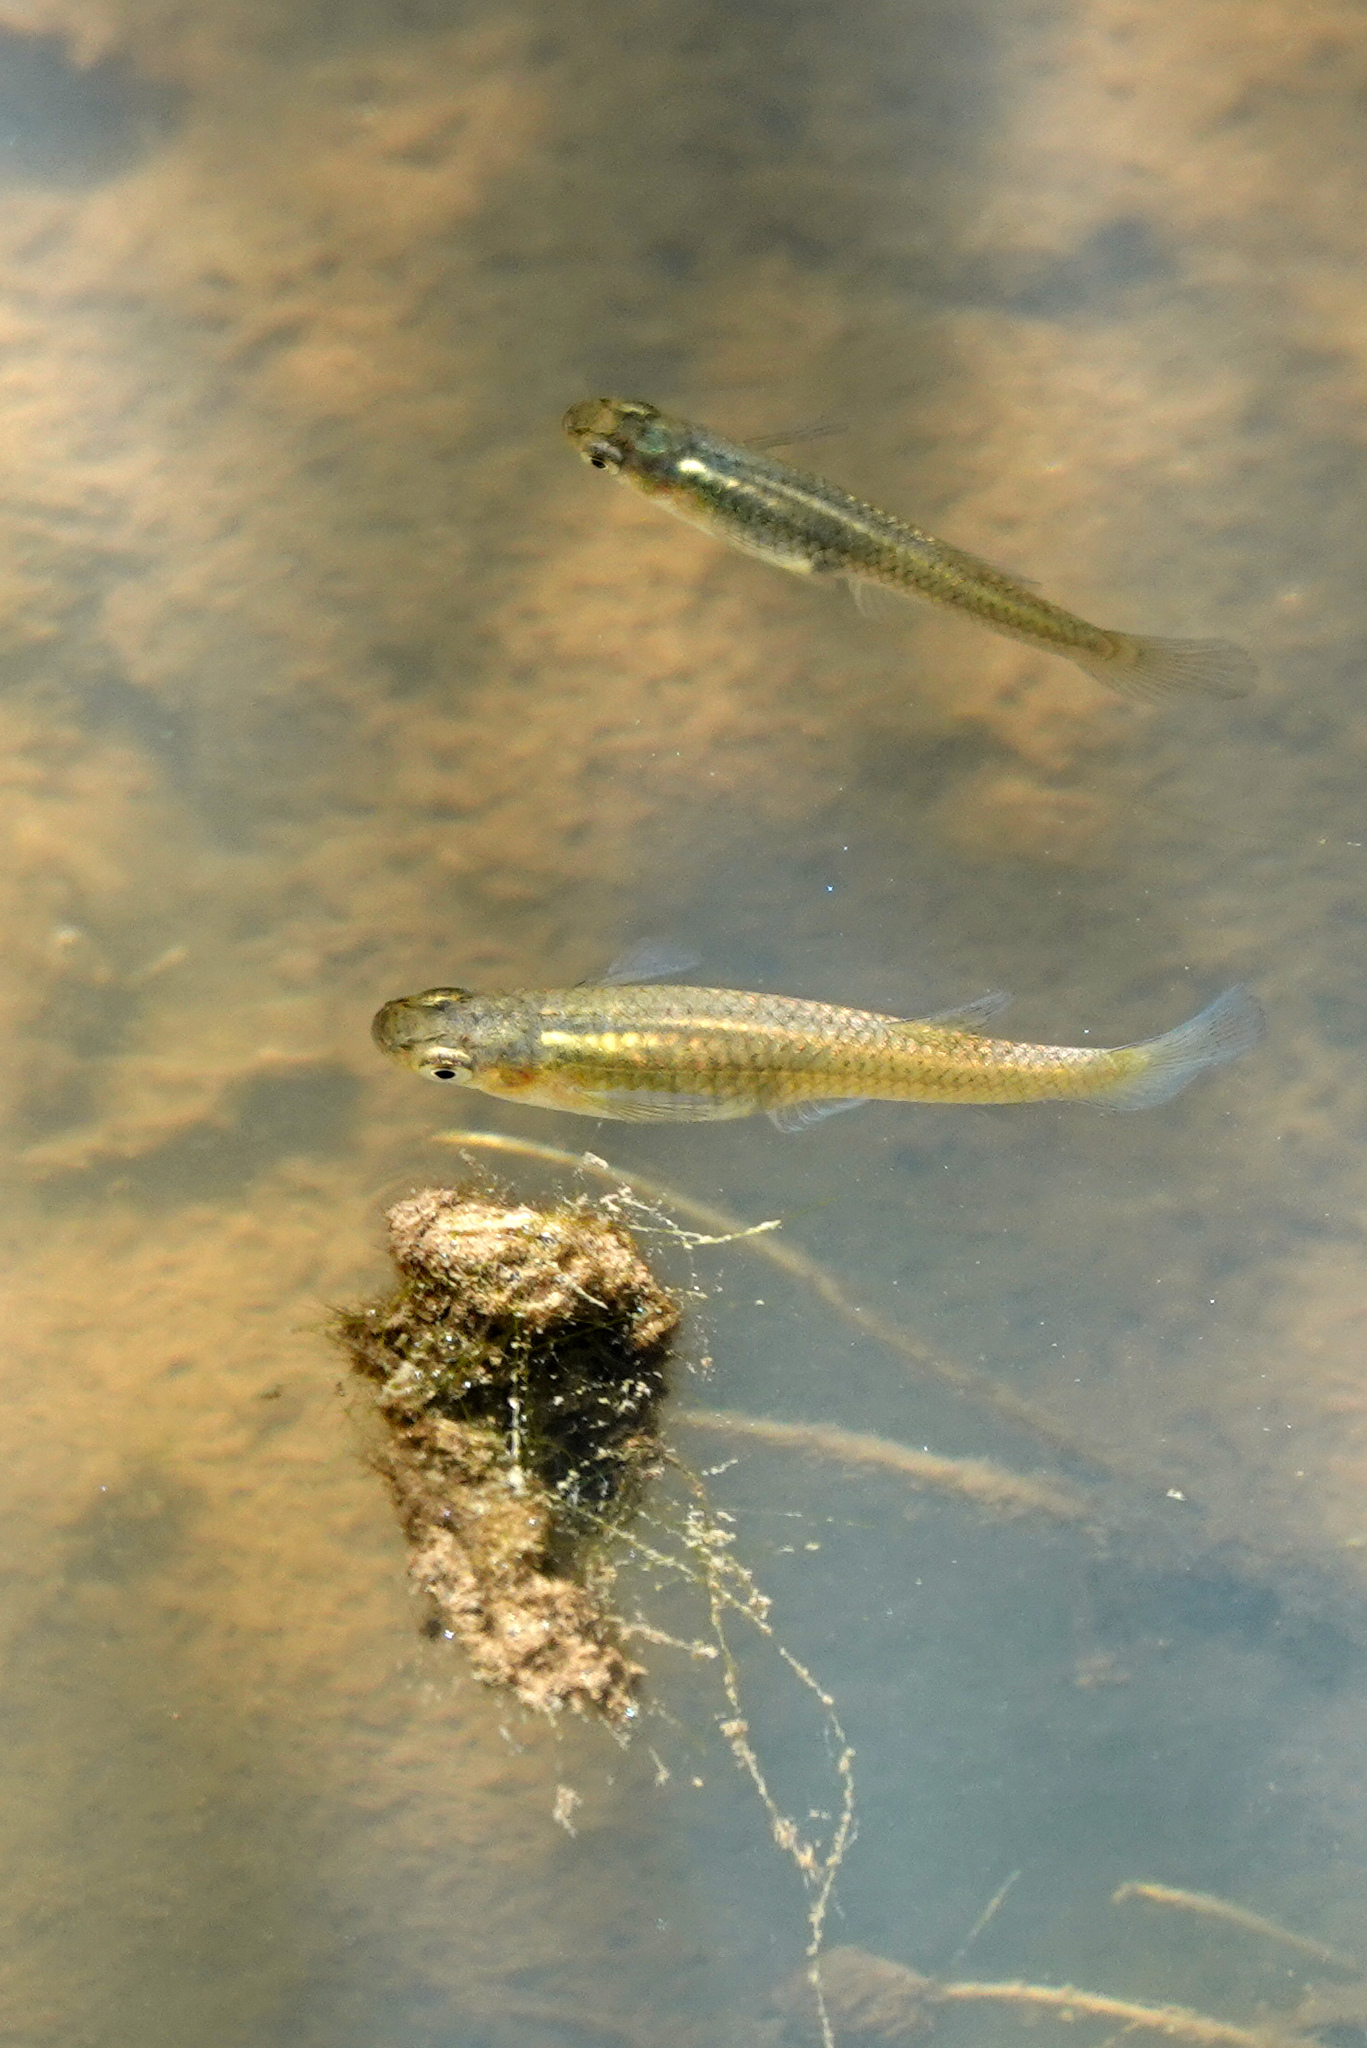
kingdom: Animalia
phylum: Chordata
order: Cyprinodontiformes
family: Poeciliidae
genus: Gambusia
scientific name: Gambusia holbrooki
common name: Eastern mosquitofish
